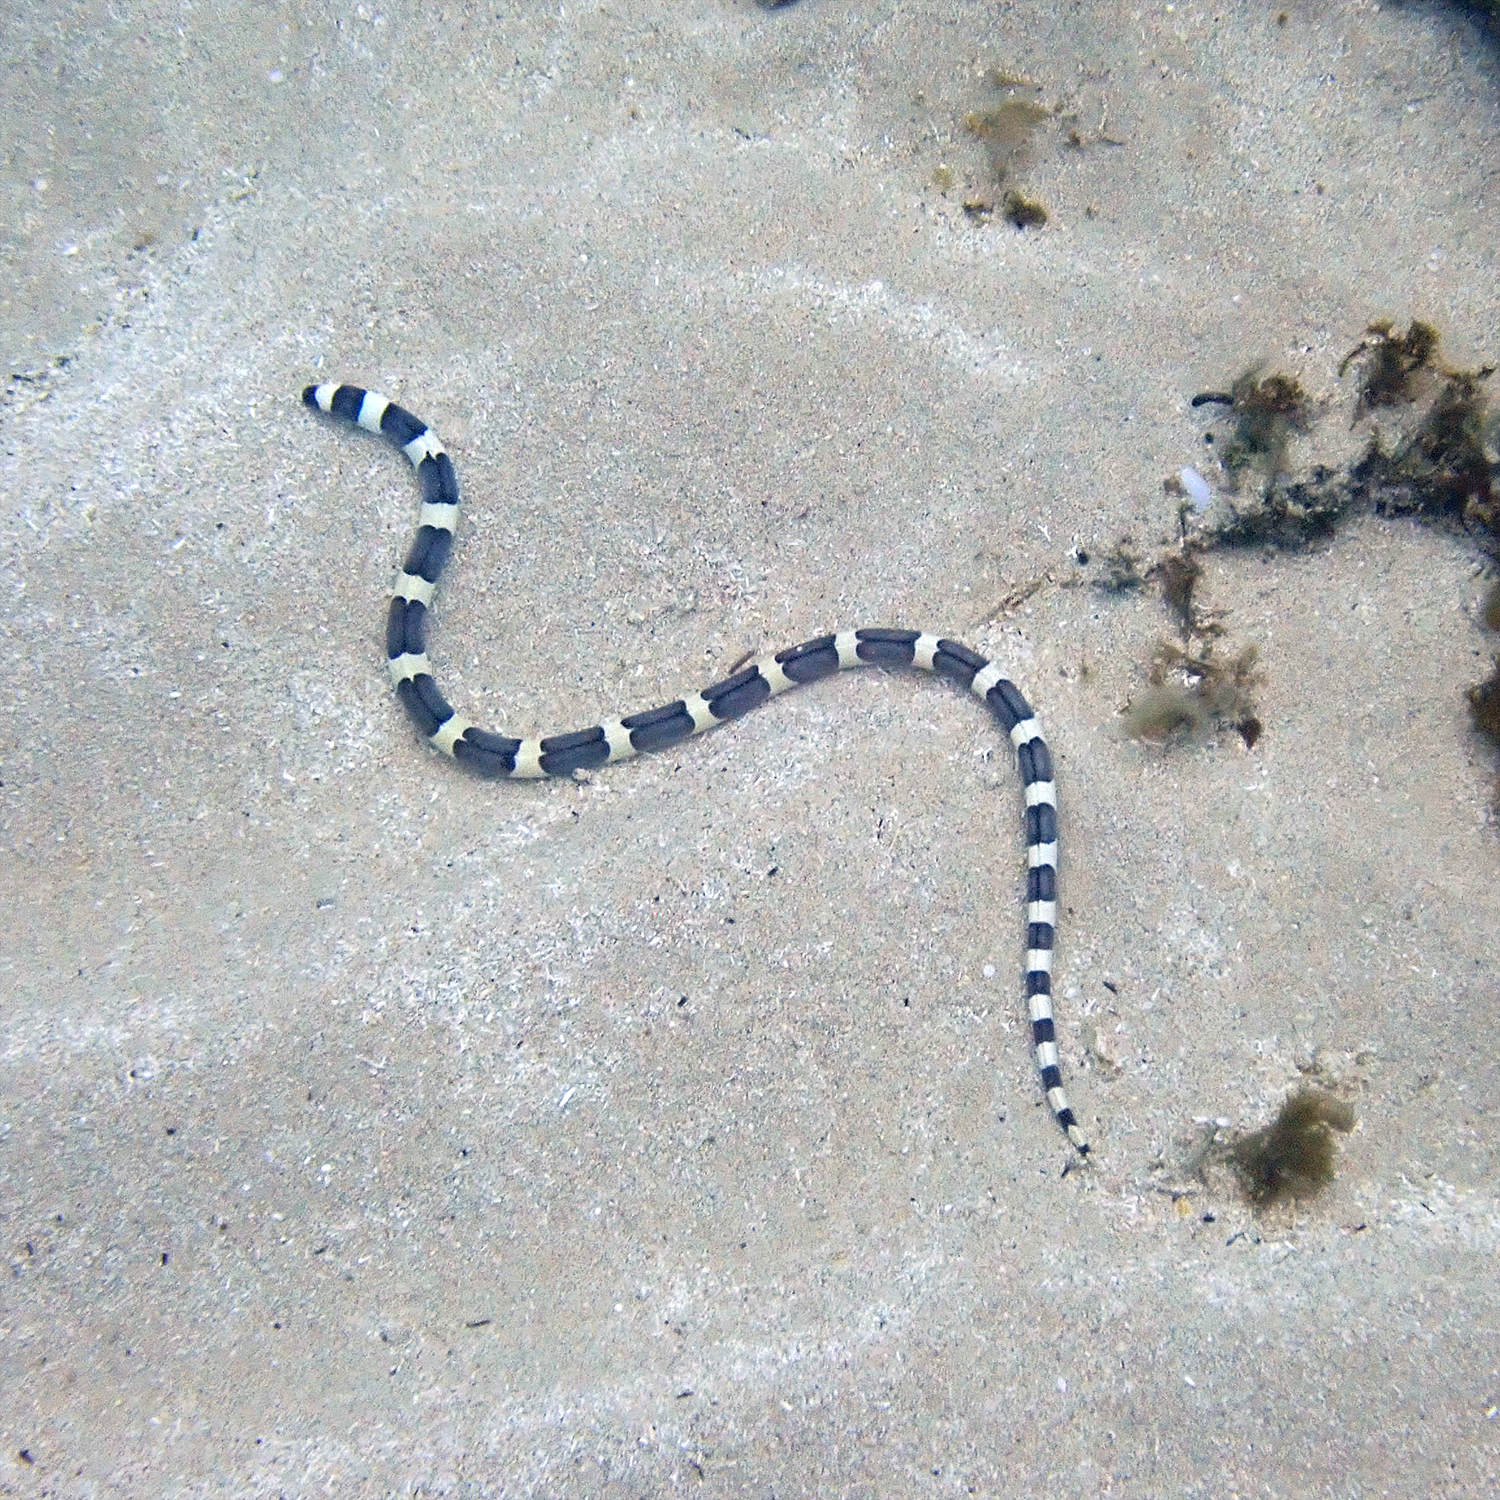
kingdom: Animalia
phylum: Chordata
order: Anguilliformes
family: Ophichthidae
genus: Leiuranus
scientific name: Leiuranus semicinctus
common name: Saddled snake eel
